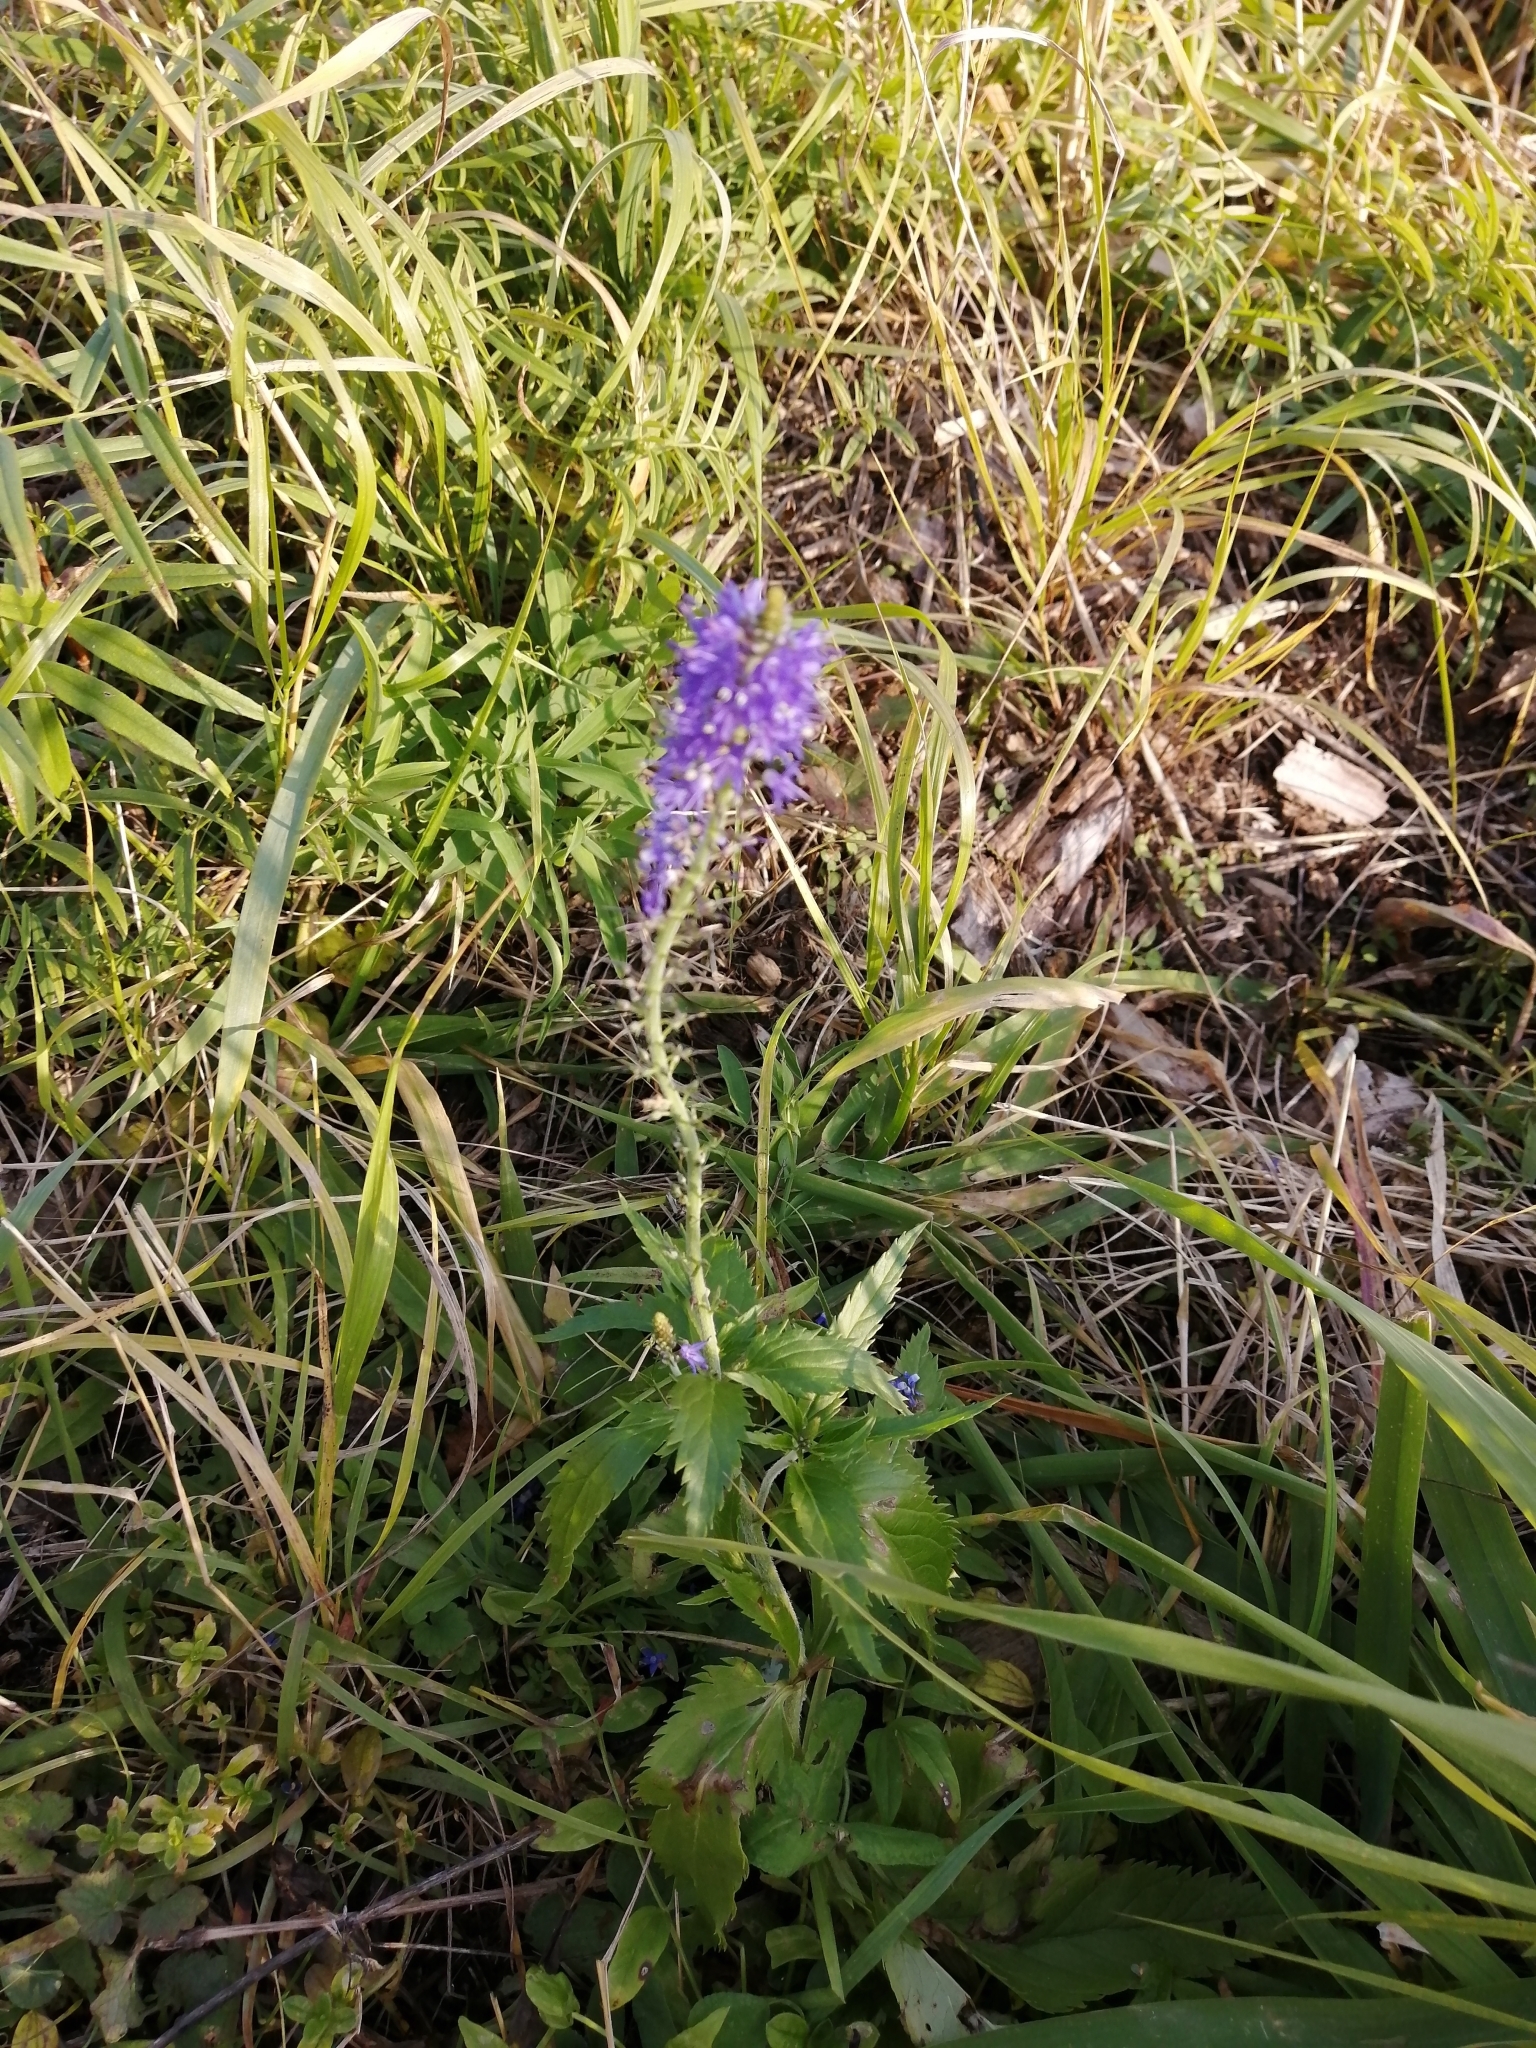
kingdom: Plantae
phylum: Tracheophyta
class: Magnoliopsida
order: Lamiales
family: Plantaginaceae
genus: Veronica
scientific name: Veronica longifolia
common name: Garden speedwell
